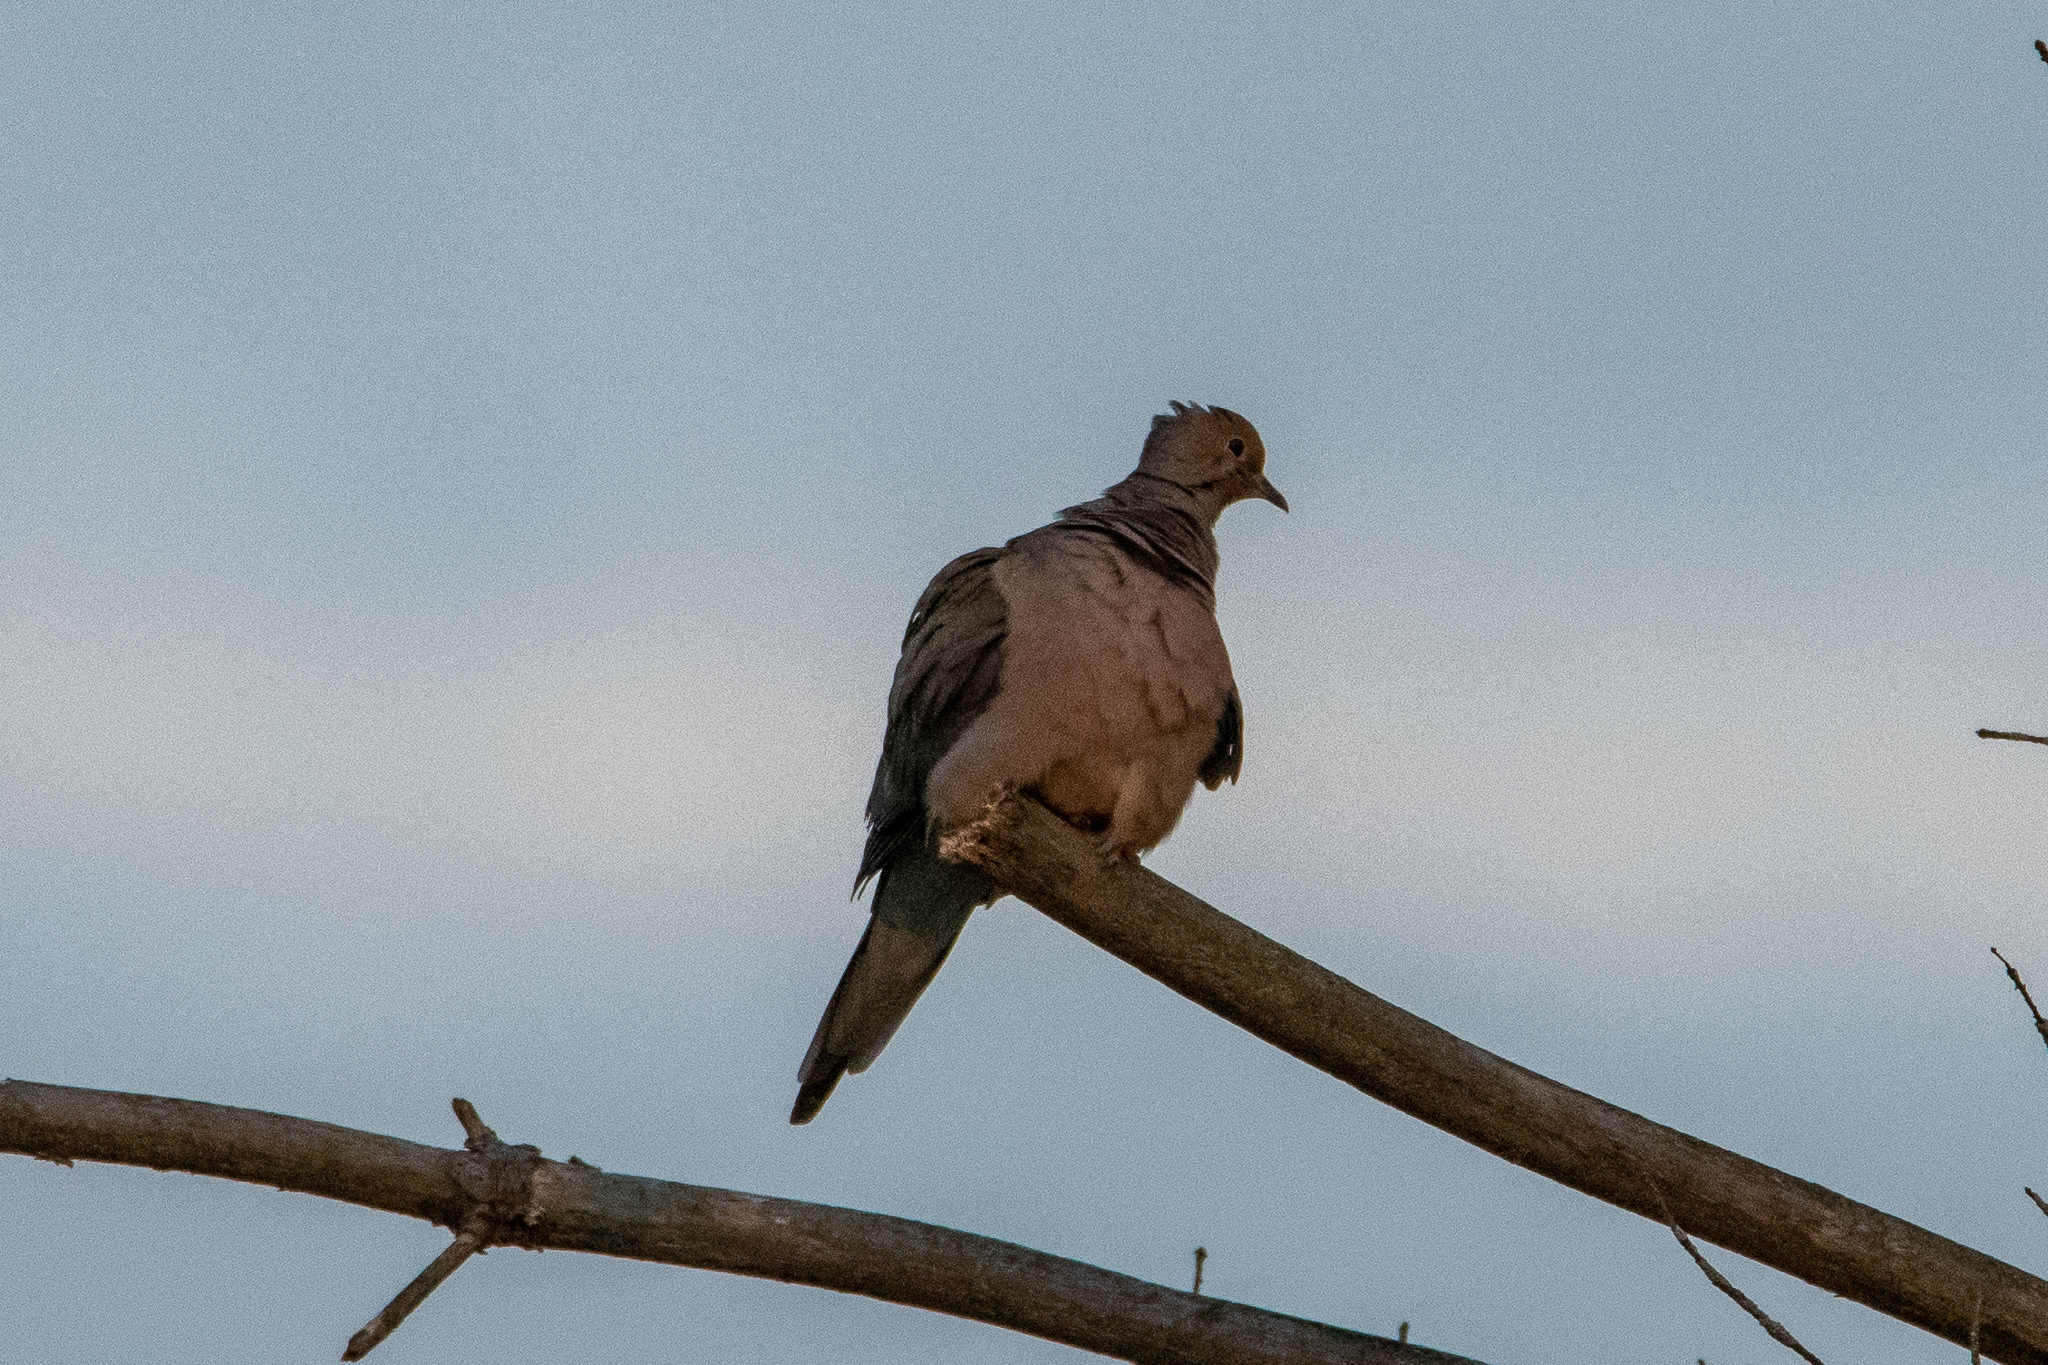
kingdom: Animalia
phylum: Chordata
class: Aves
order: Columbiformes
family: Columbidae
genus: Zenaida
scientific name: Zenaida macroura
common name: Mourning dove
